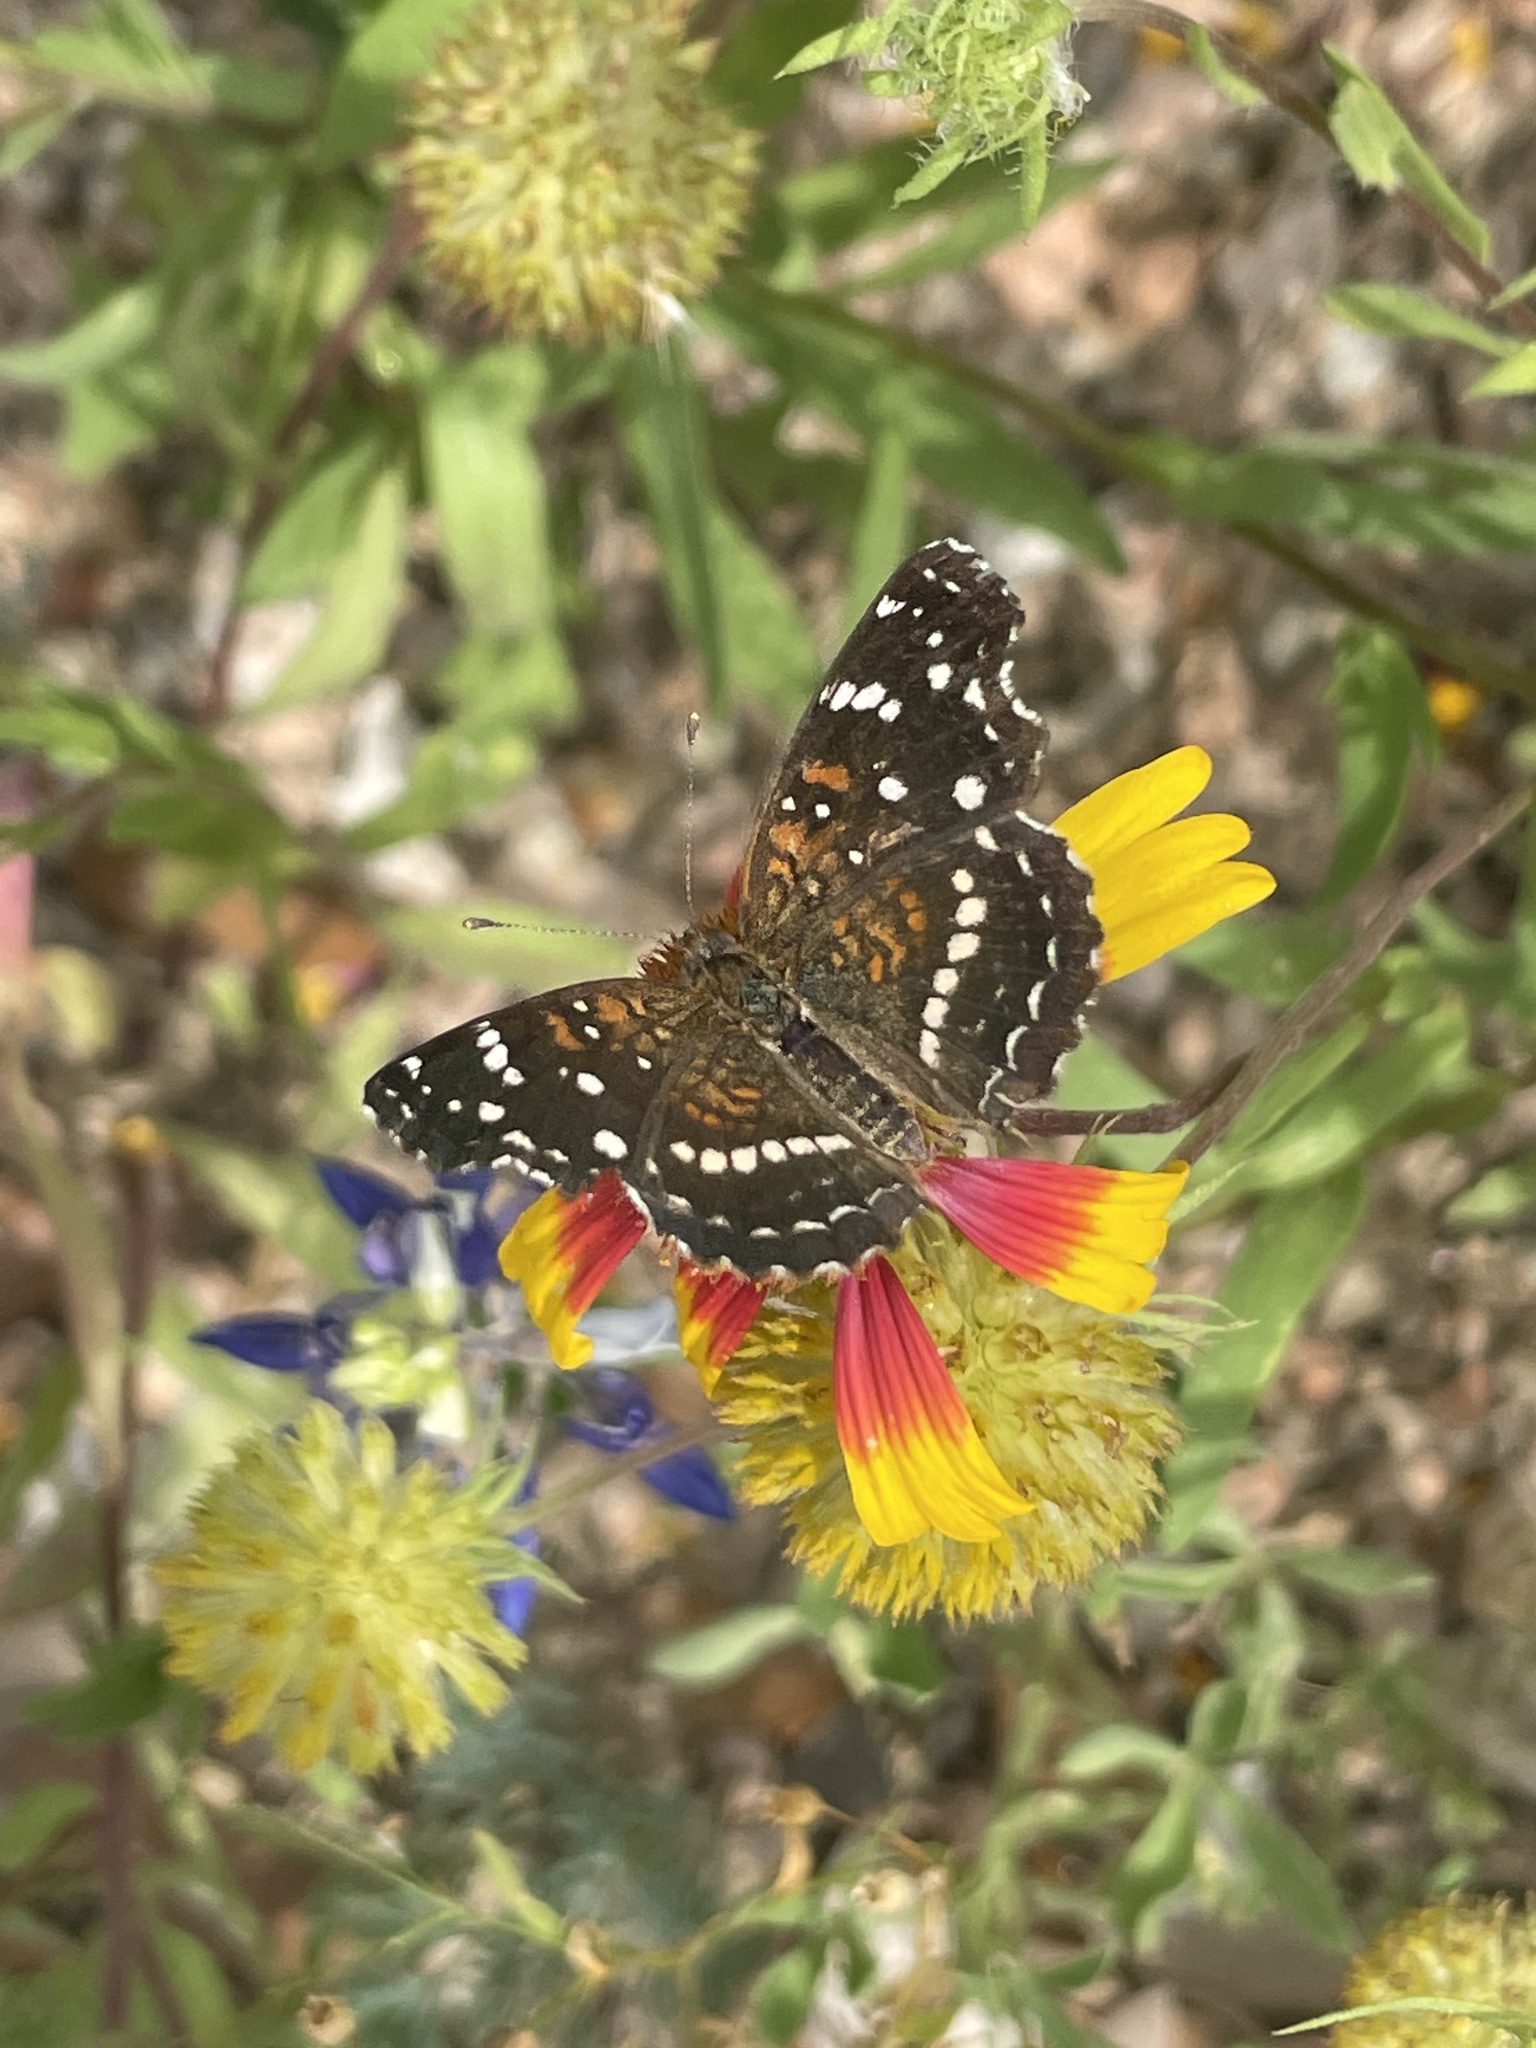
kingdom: Animalia
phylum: Arthropoda
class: Insecta
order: Lepidoptera
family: Nymphalidae
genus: Anthanassa
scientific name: Anthanassa texana
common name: Texan crescent
